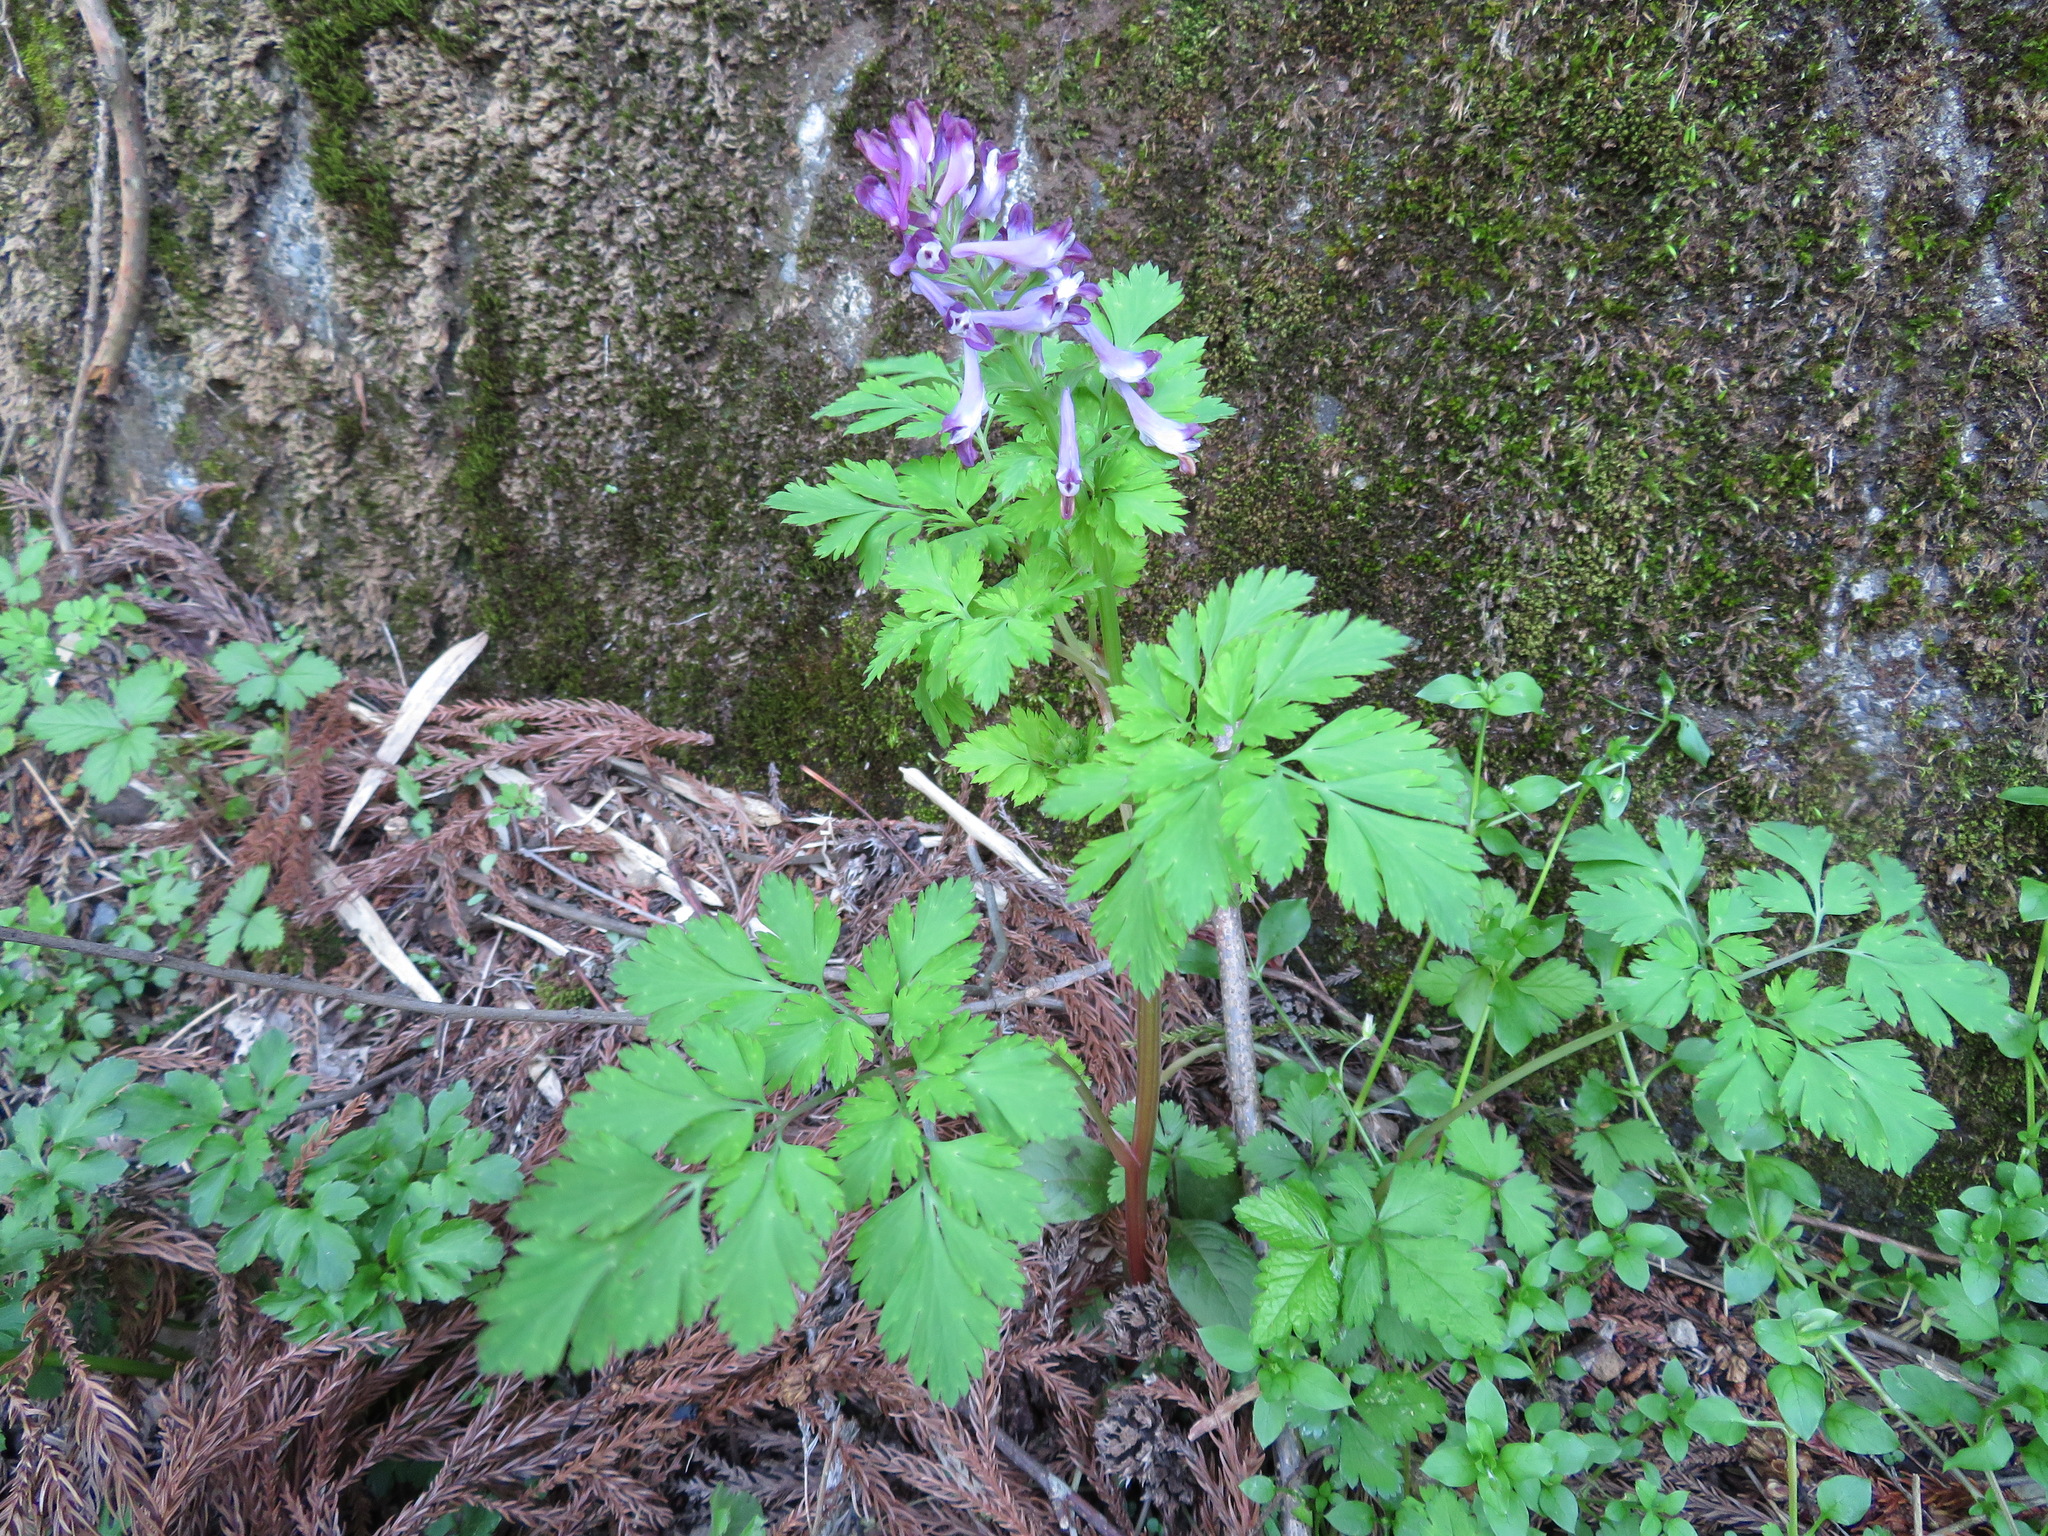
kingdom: Plantae
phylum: Tracheophyta
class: Magnoliopsida
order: Ranunculales
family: Papaveraceae
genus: Corydalis
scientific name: Corydalis incisa
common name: Incised fumewort
